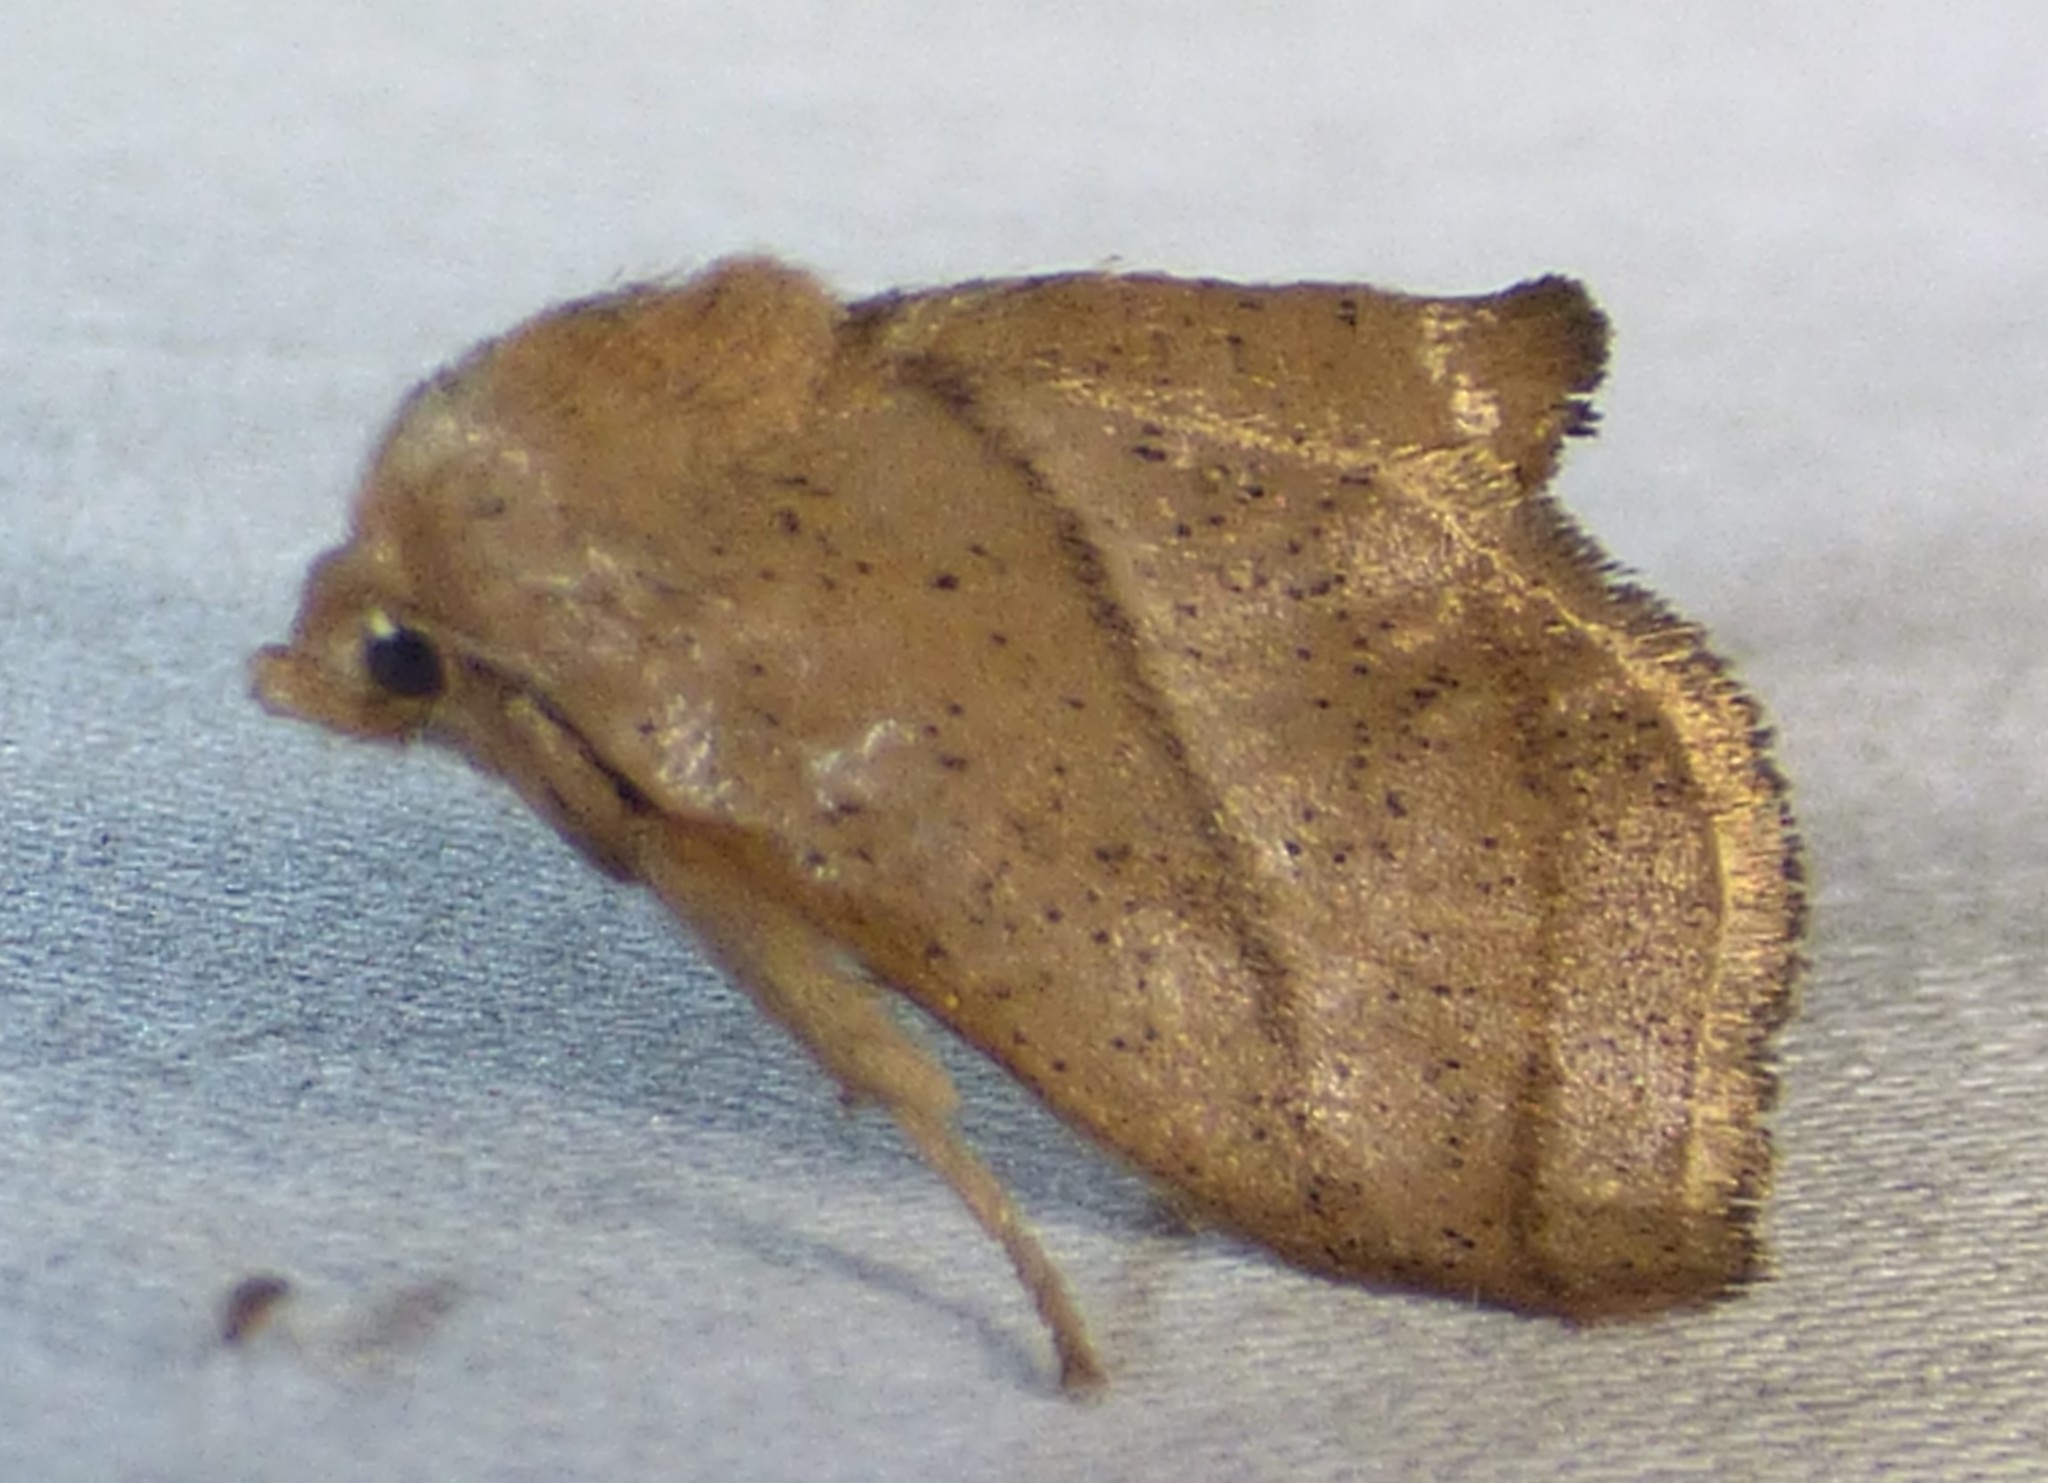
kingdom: Animalia
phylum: Arthropoda
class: Insecta
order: Lepidoptera
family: Limacodidae
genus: Natada
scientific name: Natada nasoni
